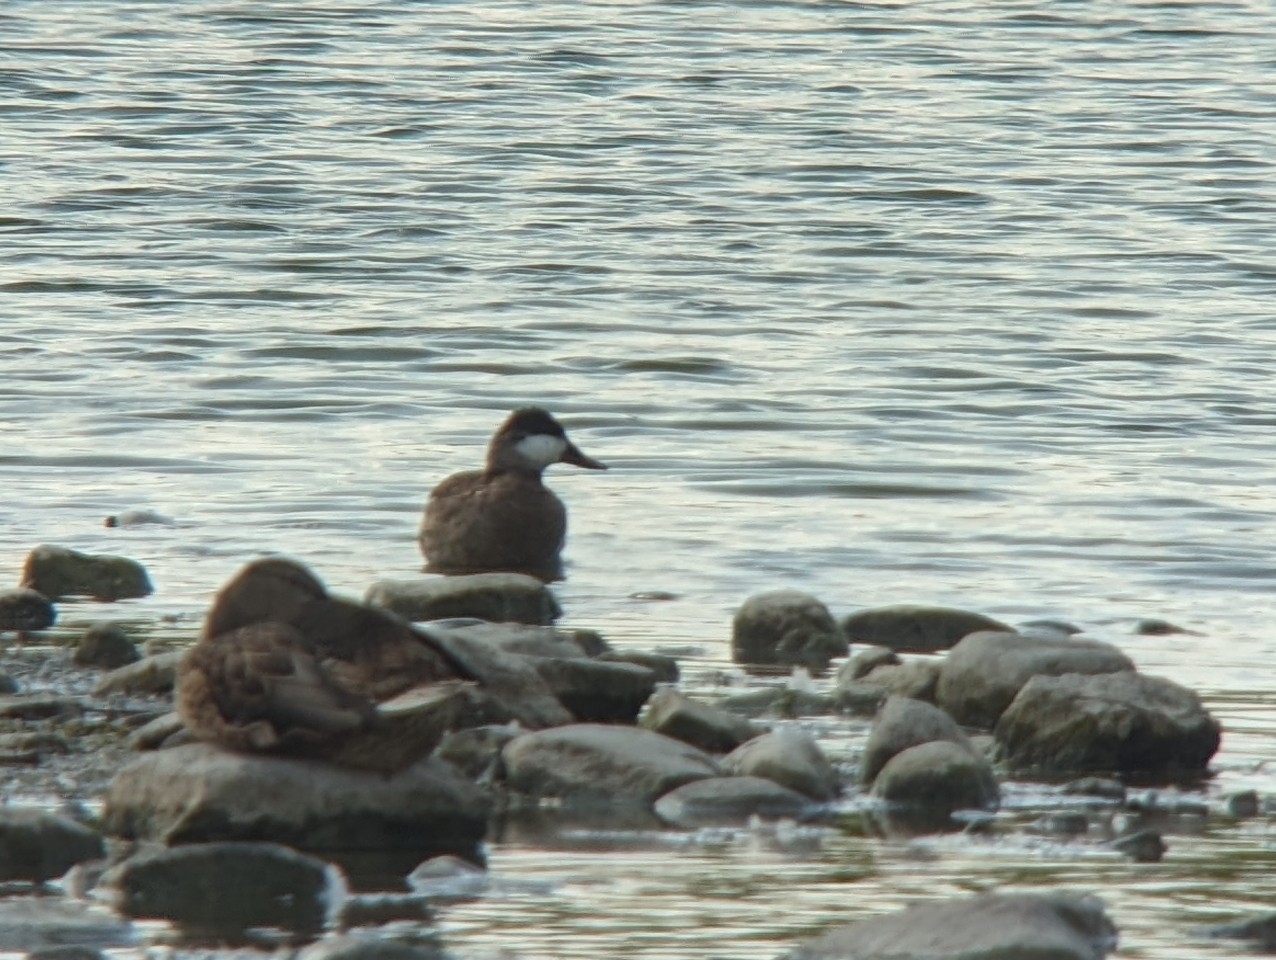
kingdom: Animalia
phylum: Chordata
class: Aves
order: Anseriformes
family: Anatidae
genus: Oxyura
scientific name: Oxyura jamaicensis
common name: Ruddy duck
